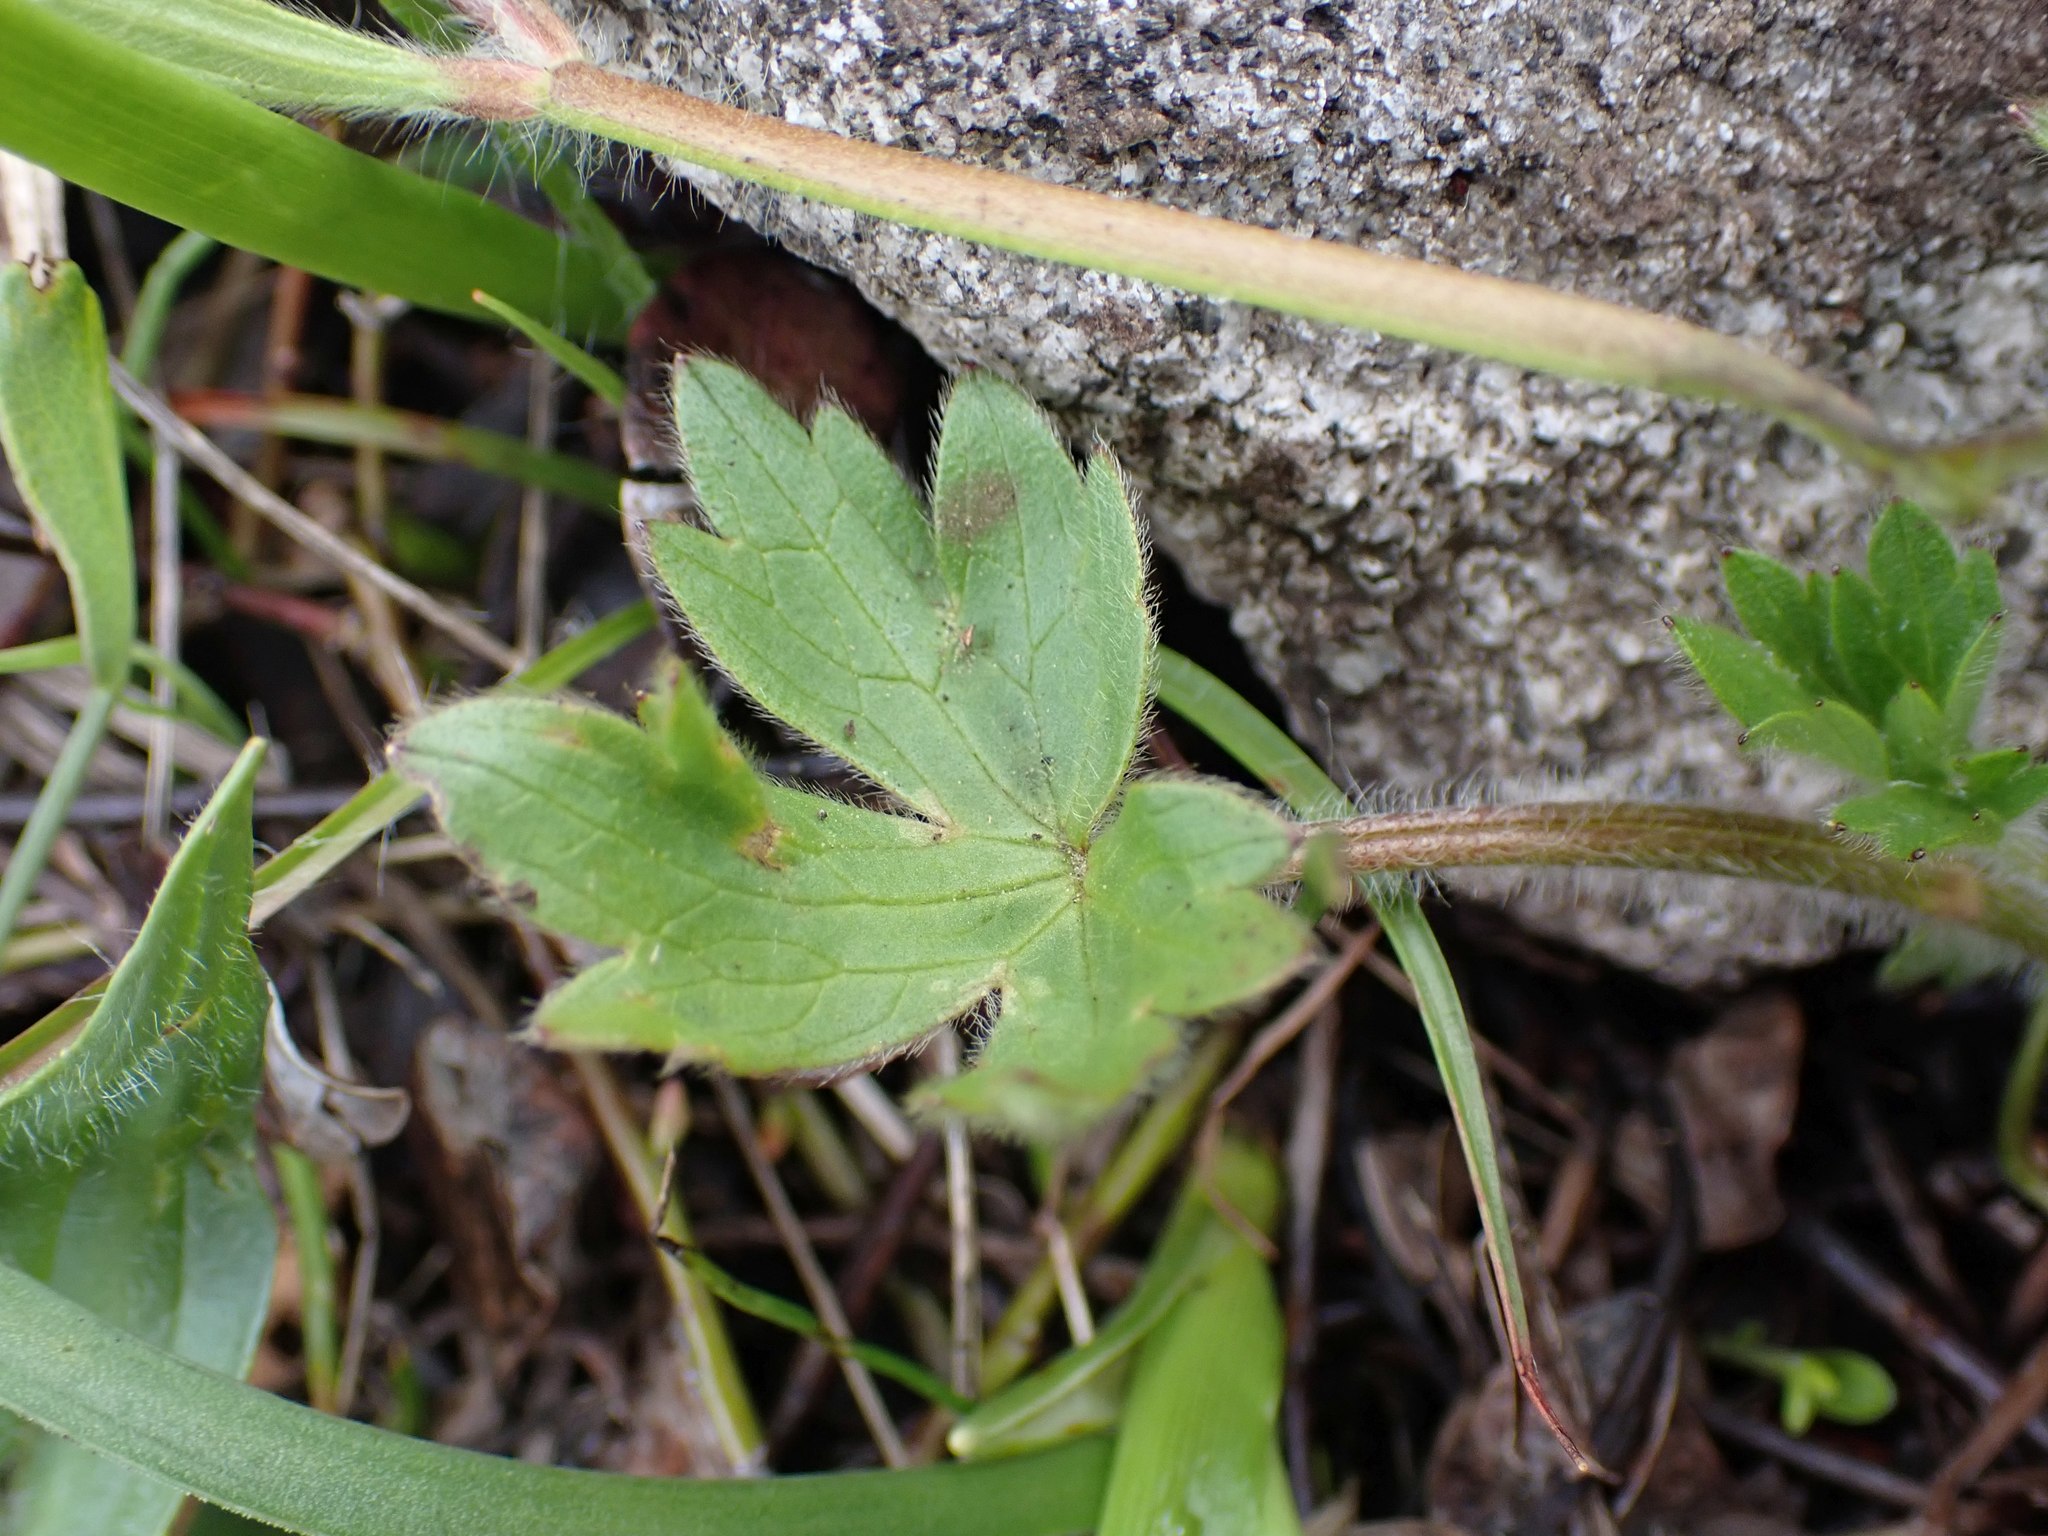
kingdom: Plantae
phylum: Tracheophyta
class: Magnoliopsida
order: Ranunculales
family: Ranunculaceae
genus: Ranunculus
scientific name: Ranunculus occidentalis
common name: Western buttercup
